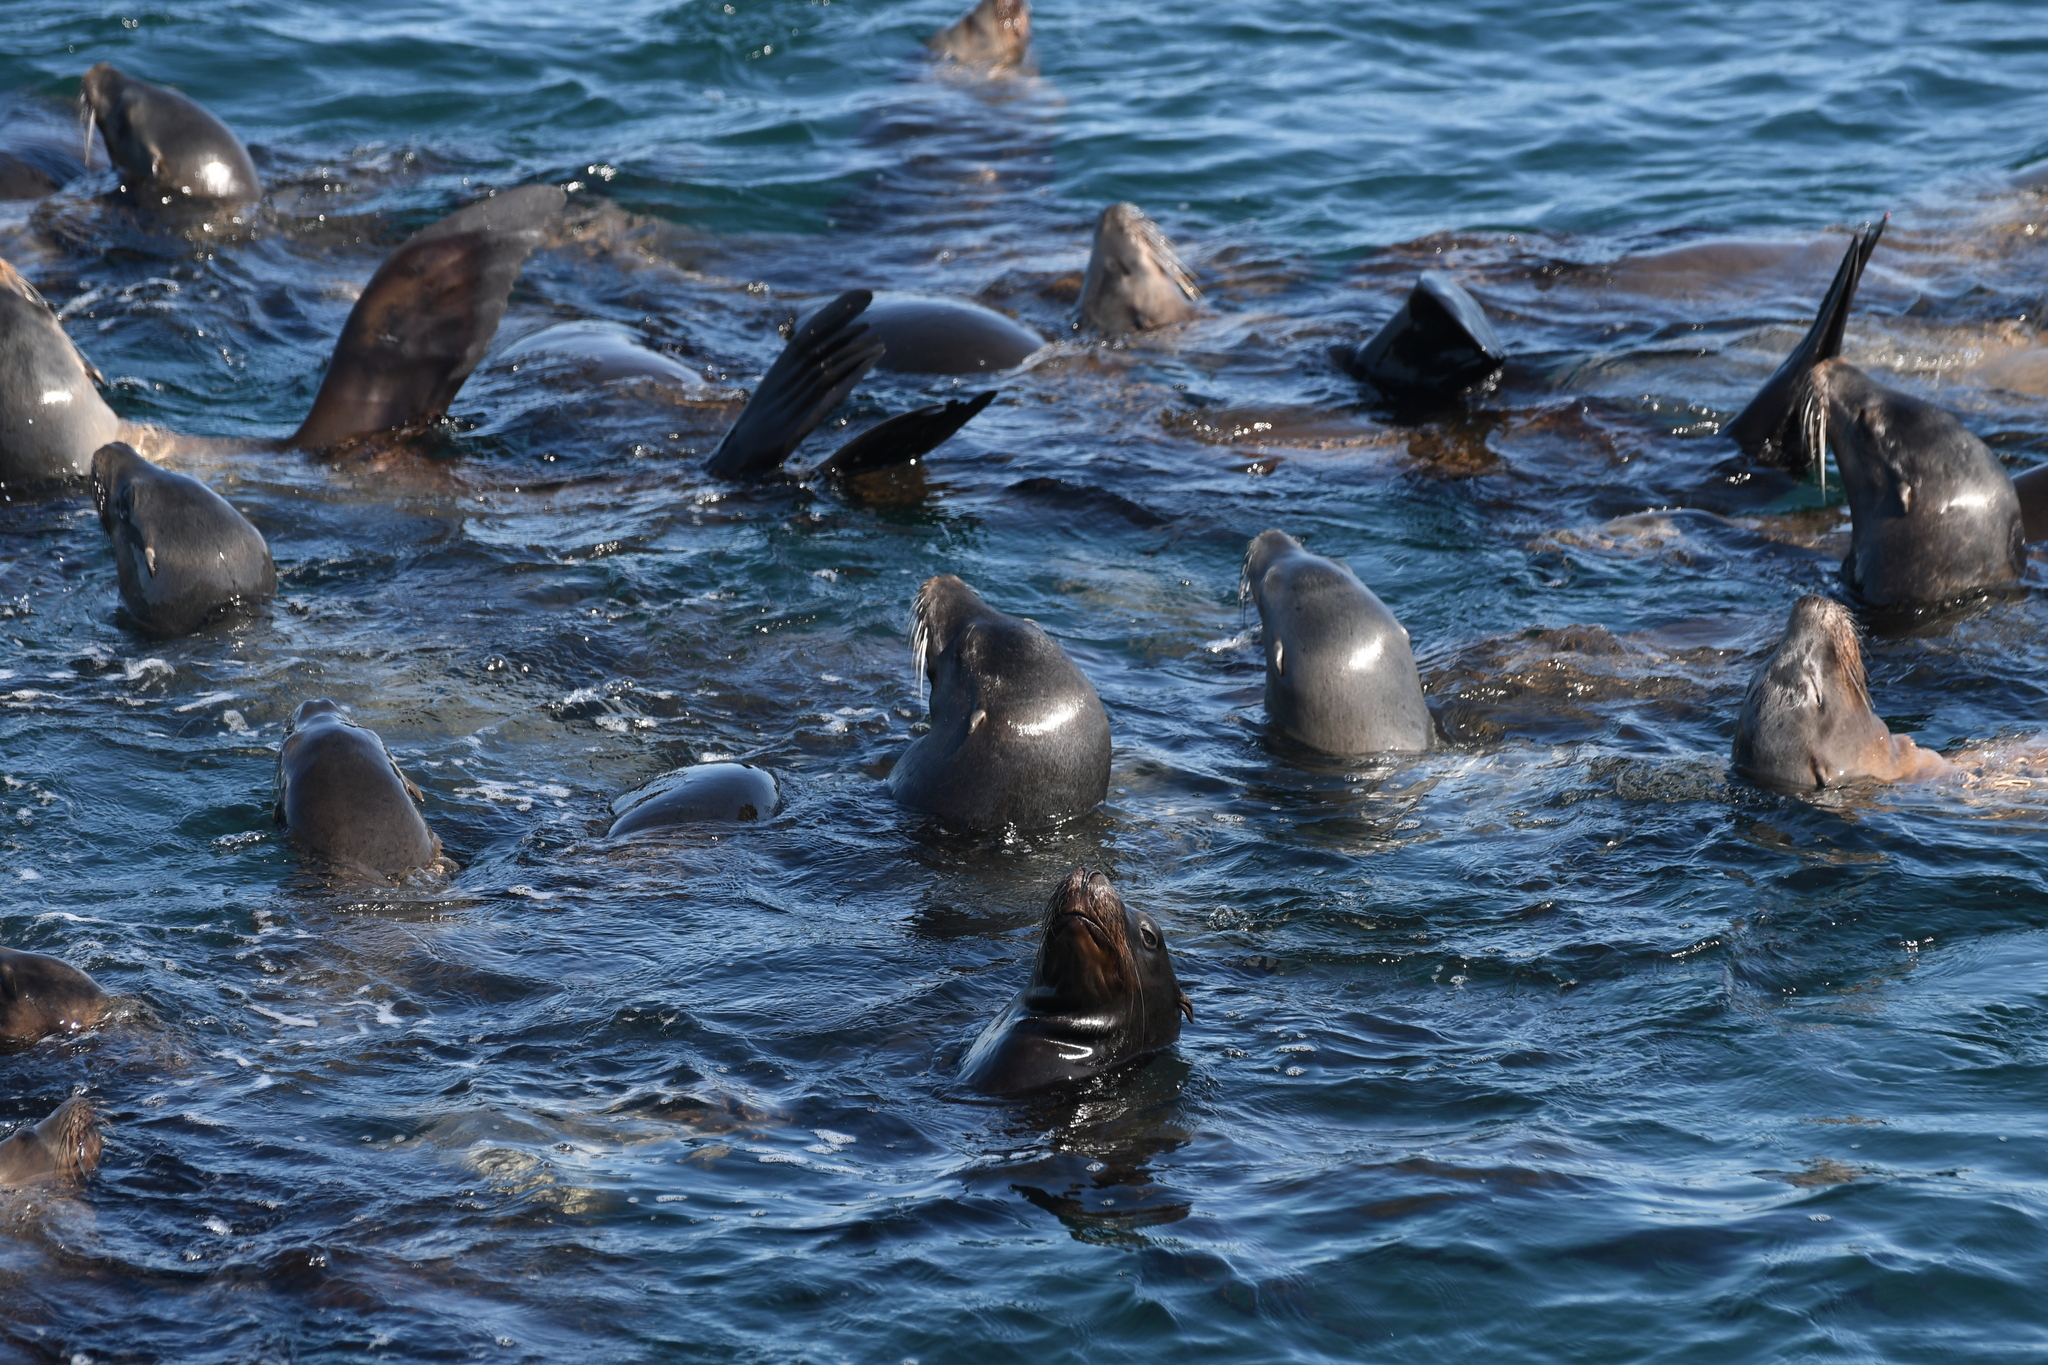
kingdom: Animalia
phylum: Chordata
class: Mammalia
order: Carnivora
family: Otariidae
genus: Zalophus
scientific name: Zalophus californianus
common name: California sea lion
